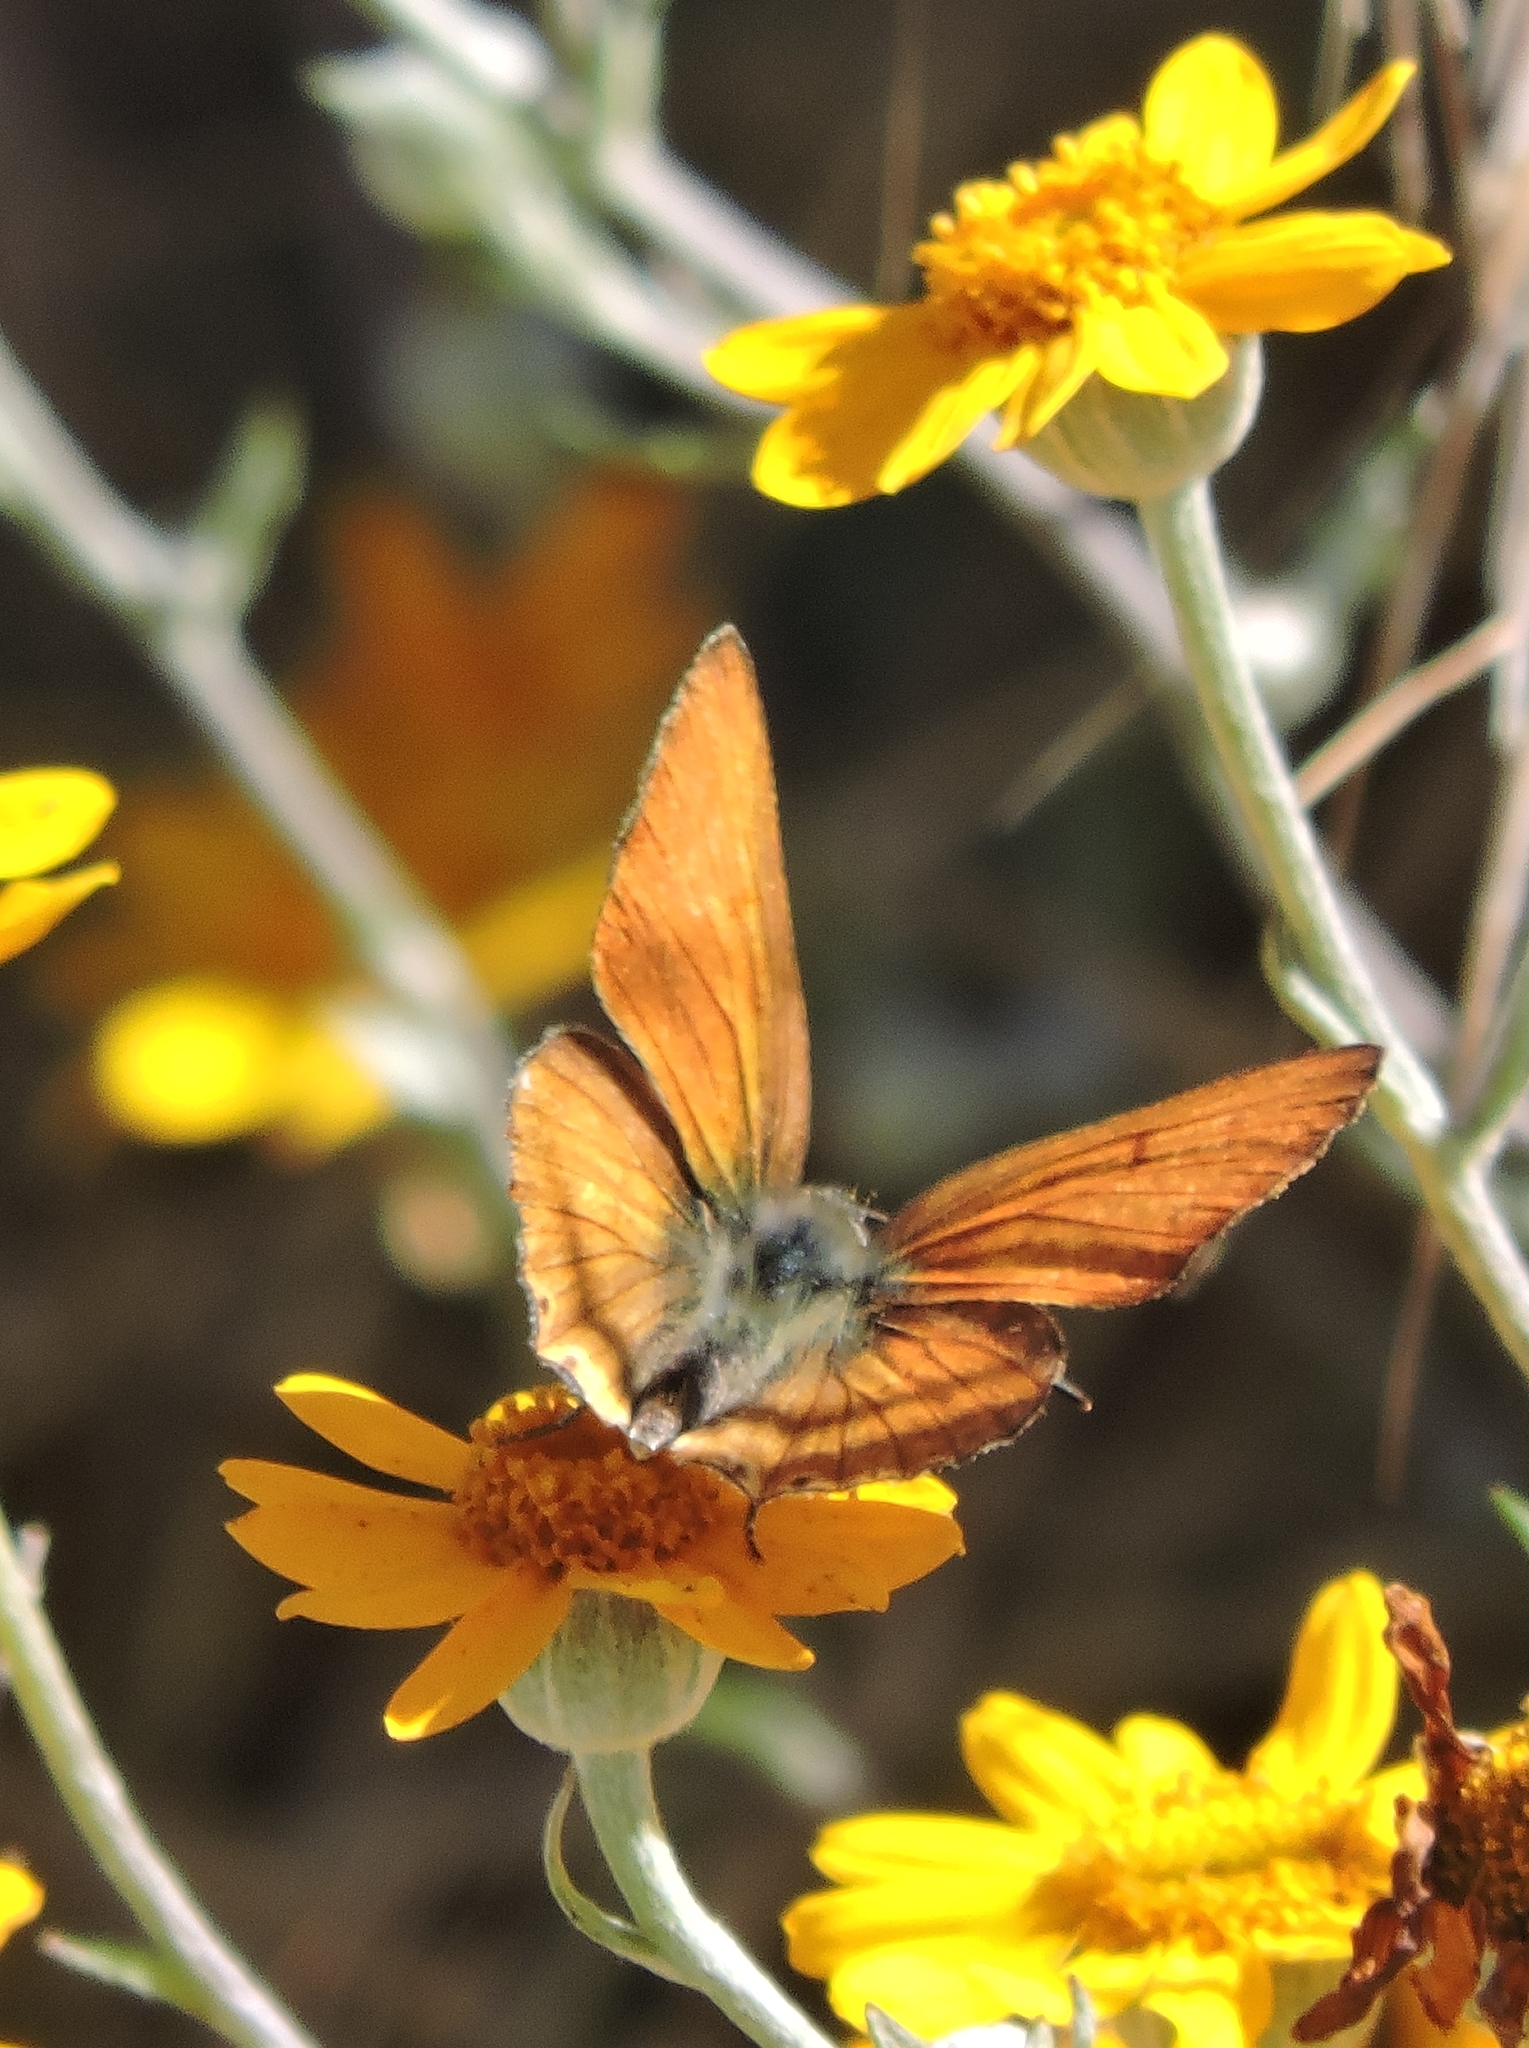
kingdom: Animalia
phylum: Arthropoda
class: Insecta
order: Lepidoptera
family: Lycaenidae
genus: Tharsalea
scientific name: Tharsalea gorgon
